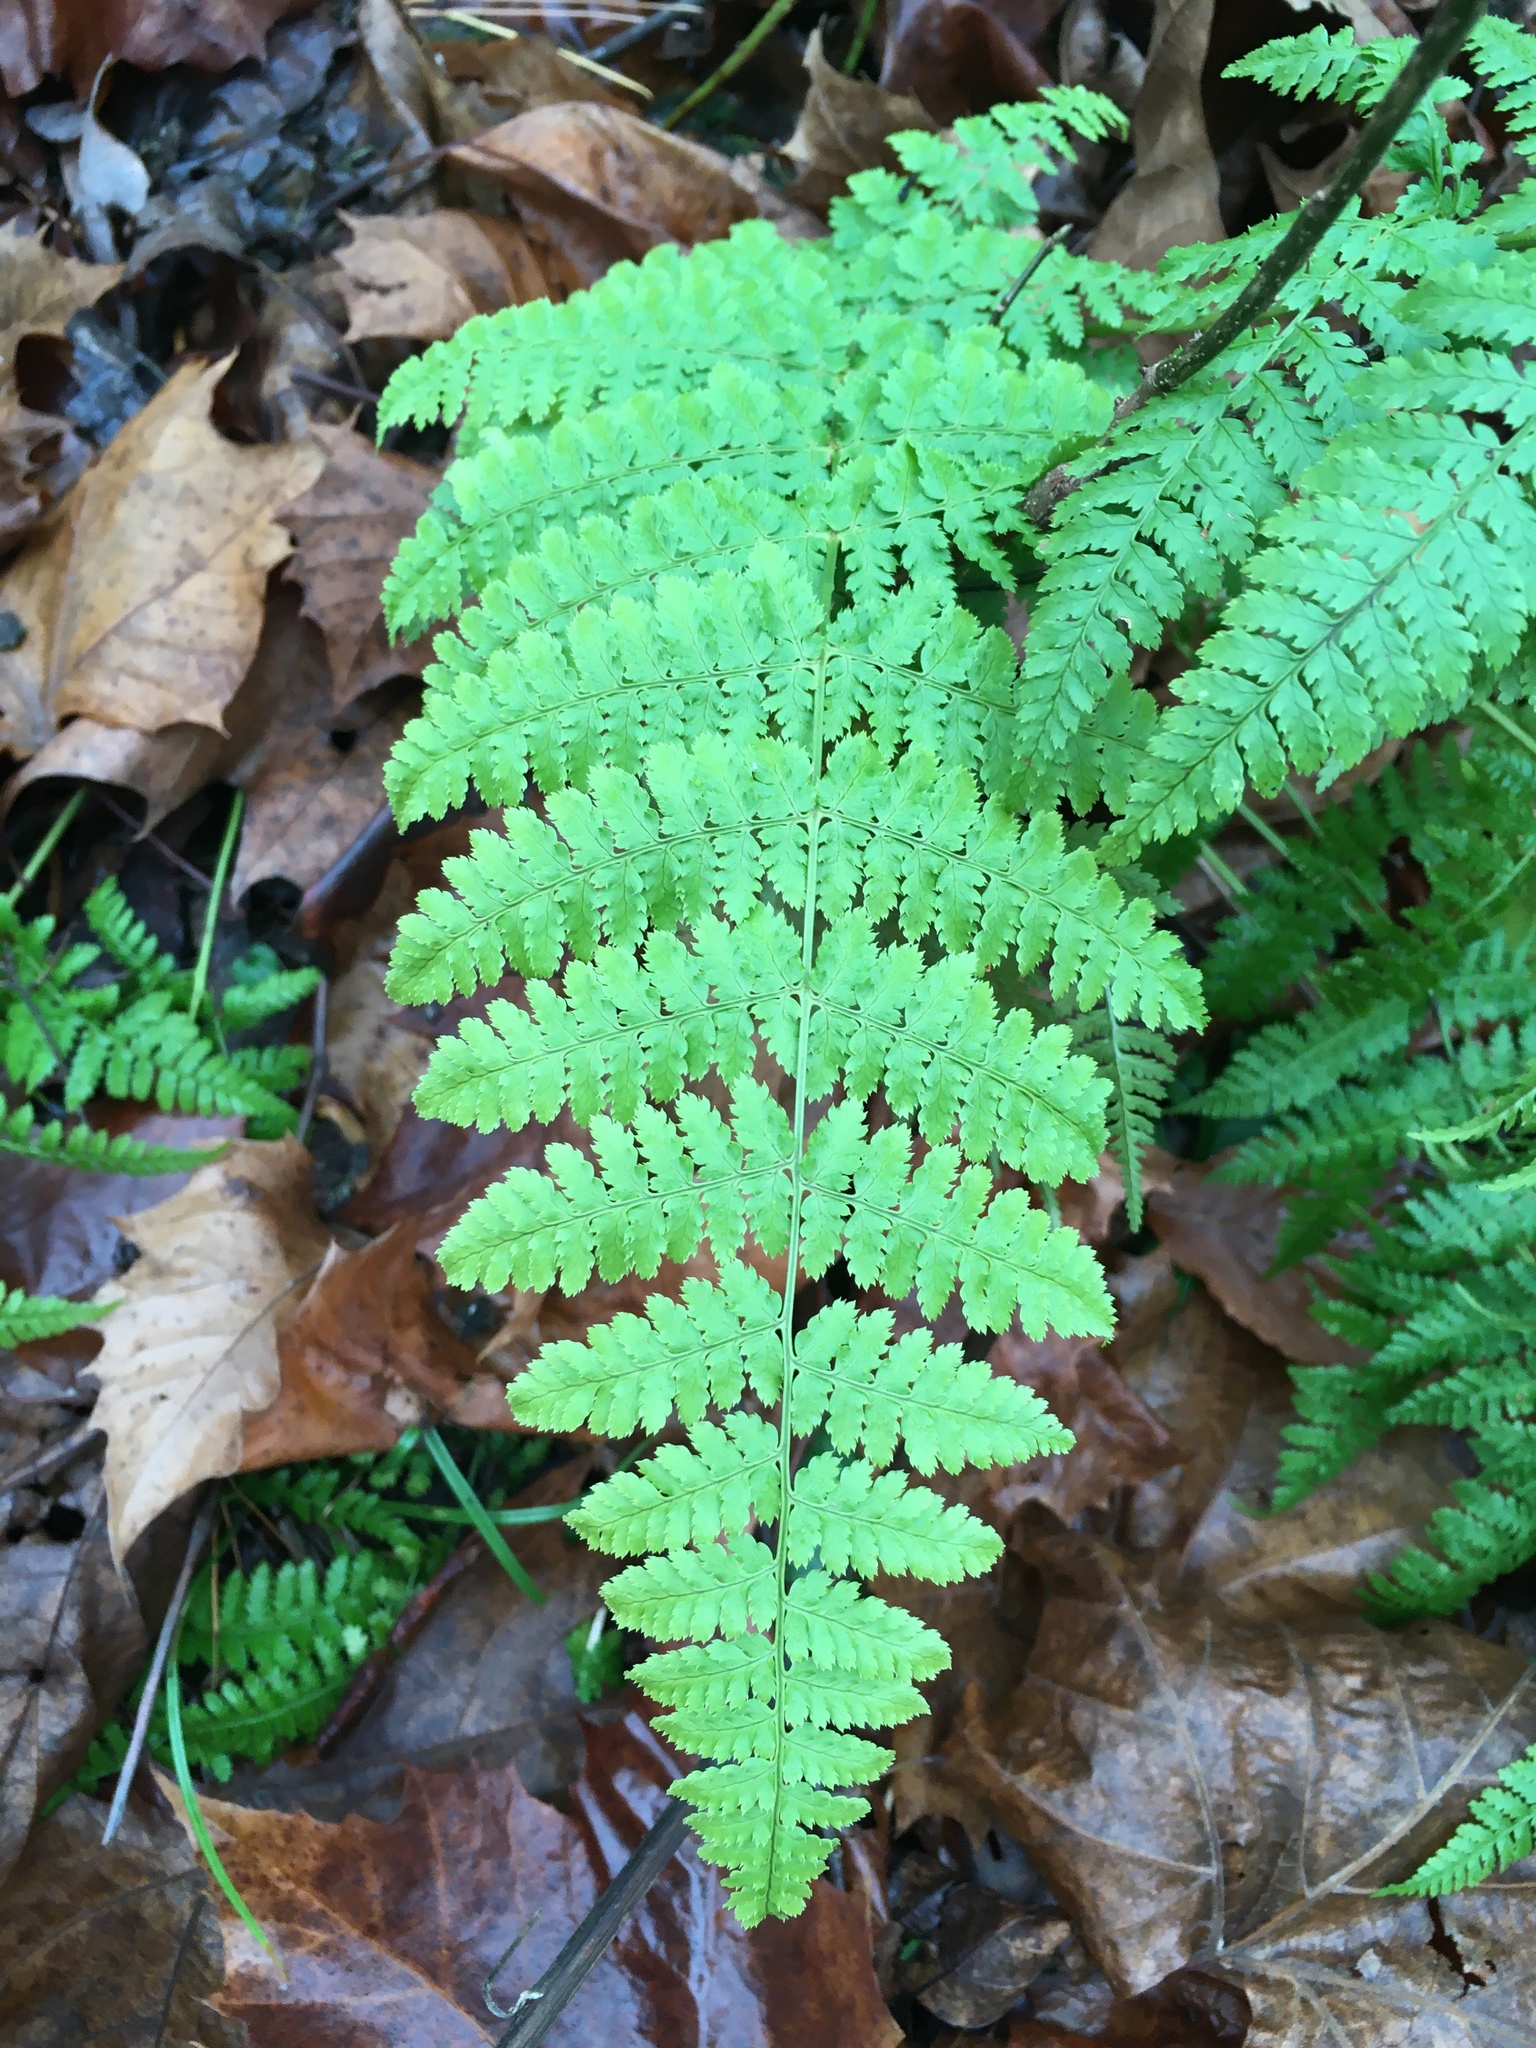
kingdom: Plantae
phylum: Tracheophyta
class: Polypodiopsida
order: Polypodiales
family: Dryopteridaceae
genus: Dryopteris
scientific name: Dryopteris intermedia
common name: Evergreen wood fern
